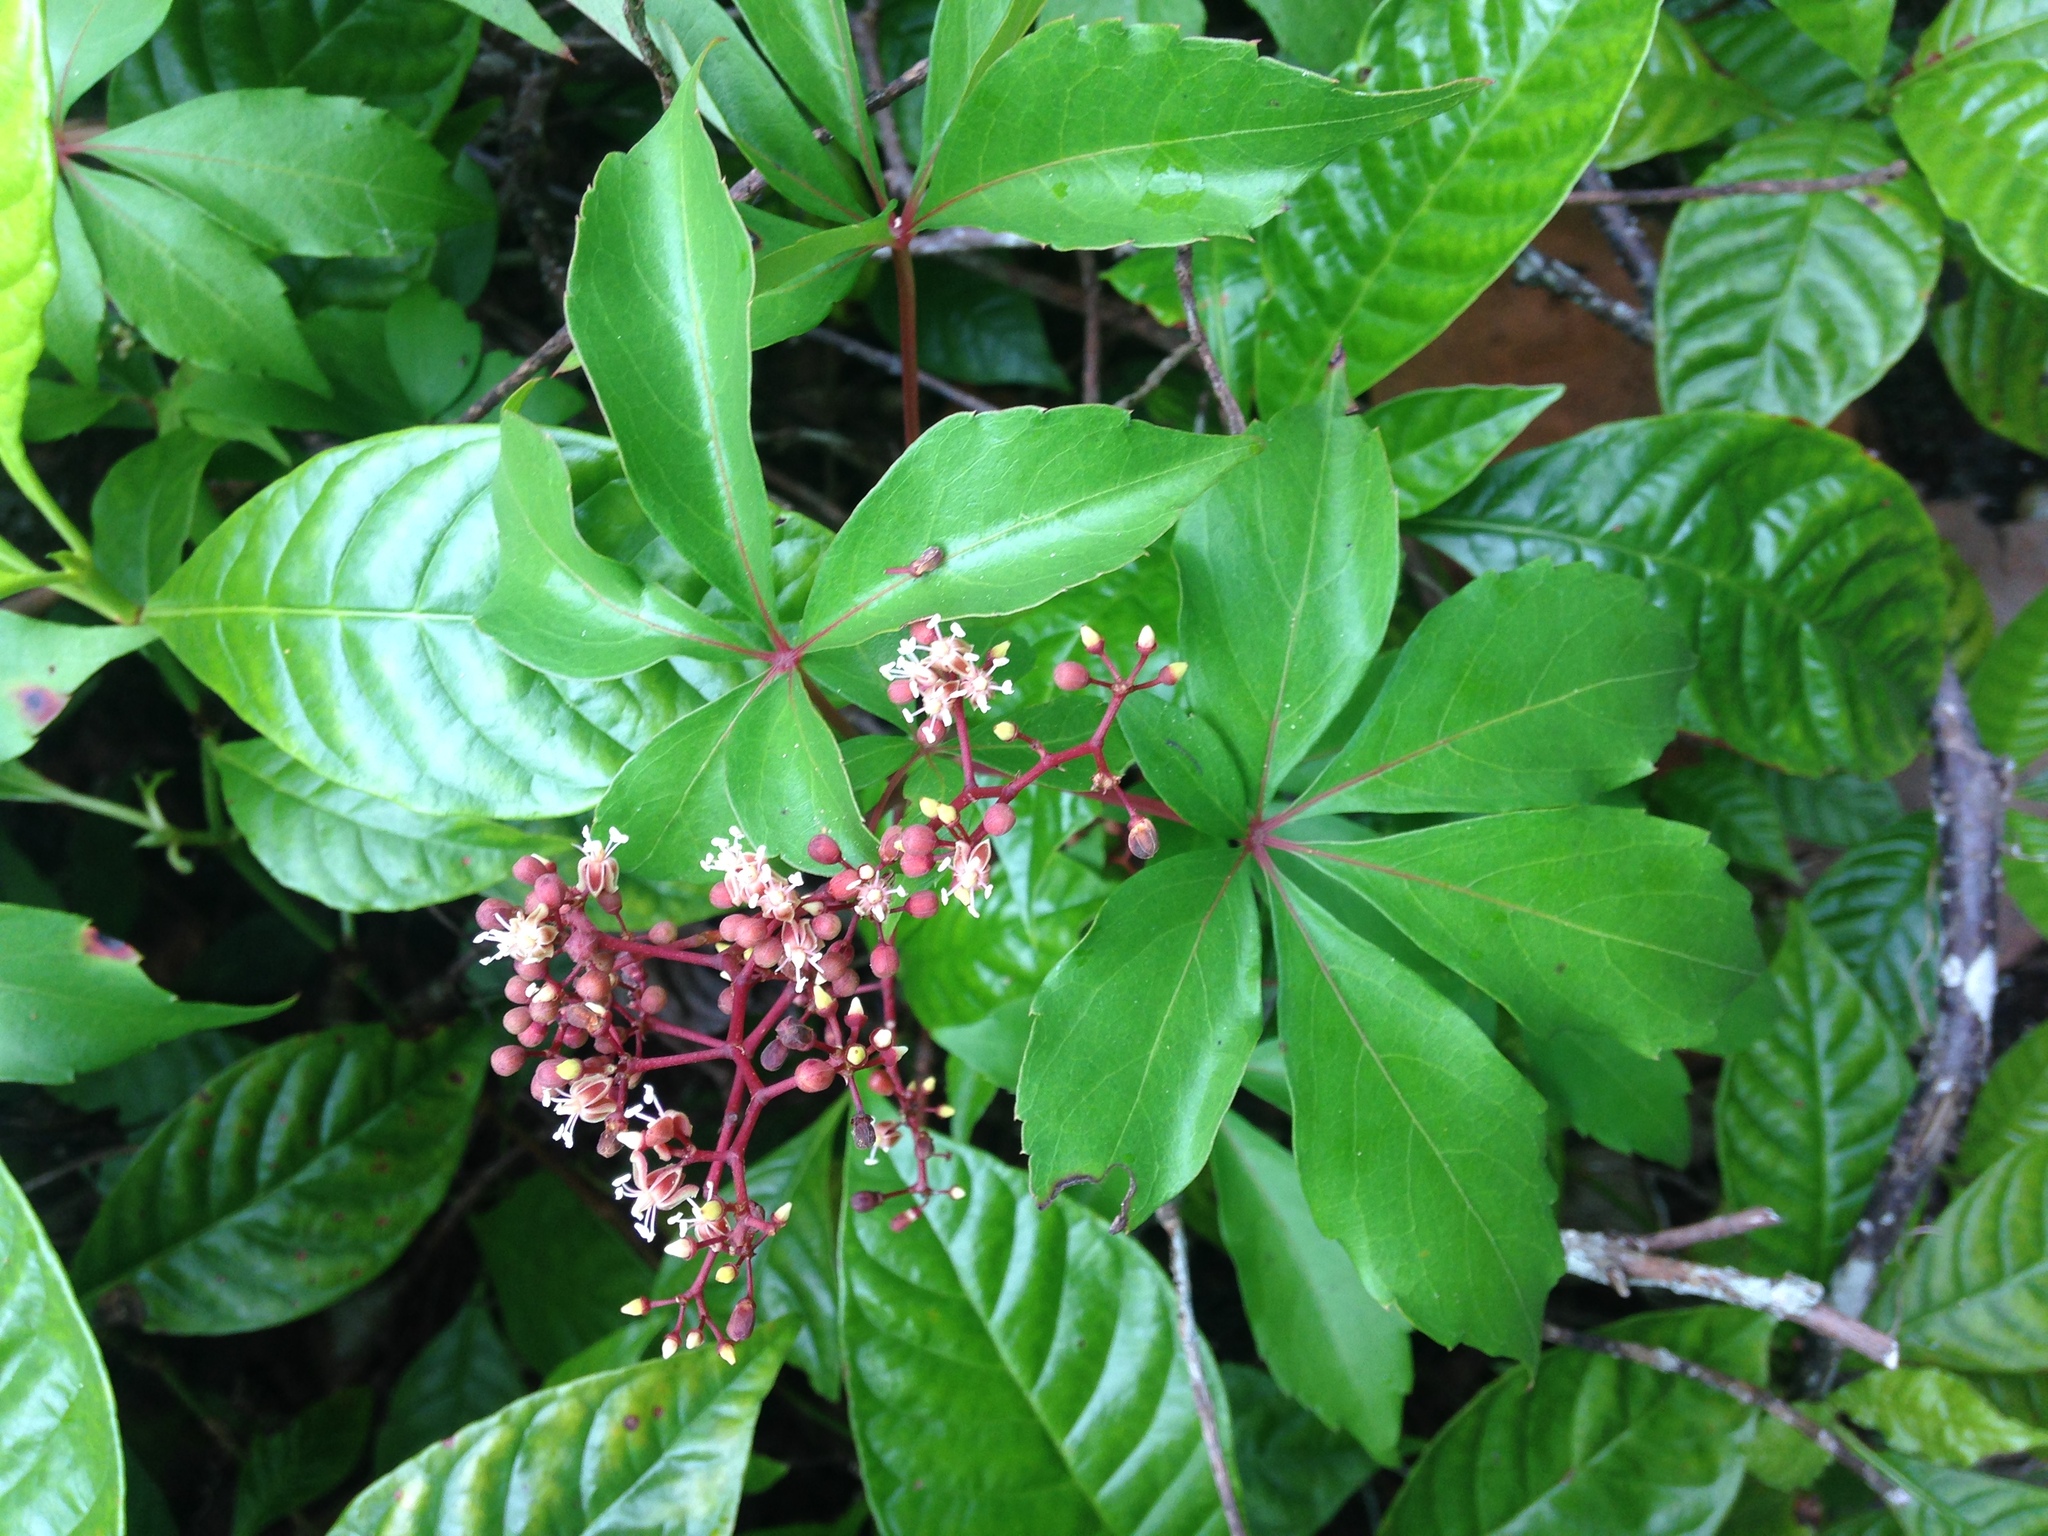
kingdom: Plantae
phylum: Tracheophyta
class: Magnoliopsida
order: Vitales
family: Vitaceae
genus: Parthenocissus
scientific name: Parthenocissus quinquefolia
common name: Virginia-creeper
